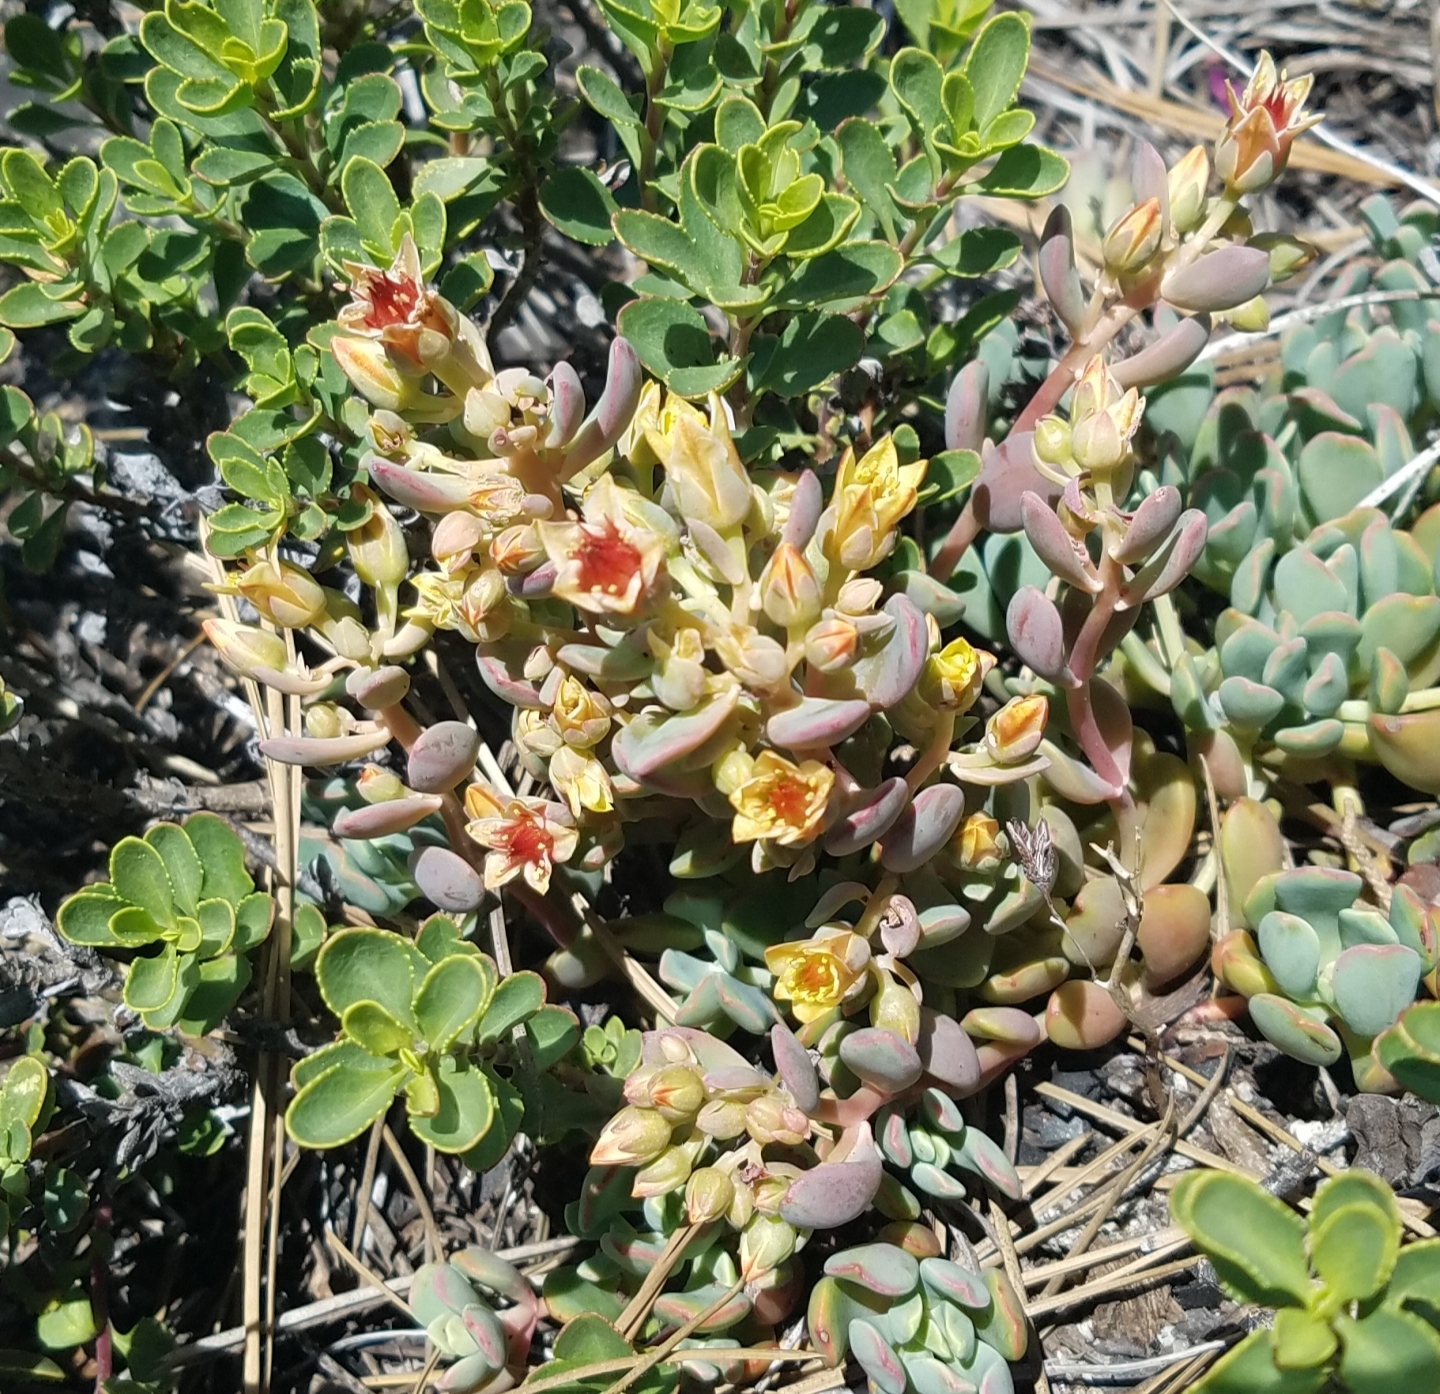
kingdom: Plantae
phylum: Tracheophyta
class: Magnoliopsida
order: Saxifragales
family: Crassulaceae
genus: Sedum
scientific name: Sedum obtusatum
